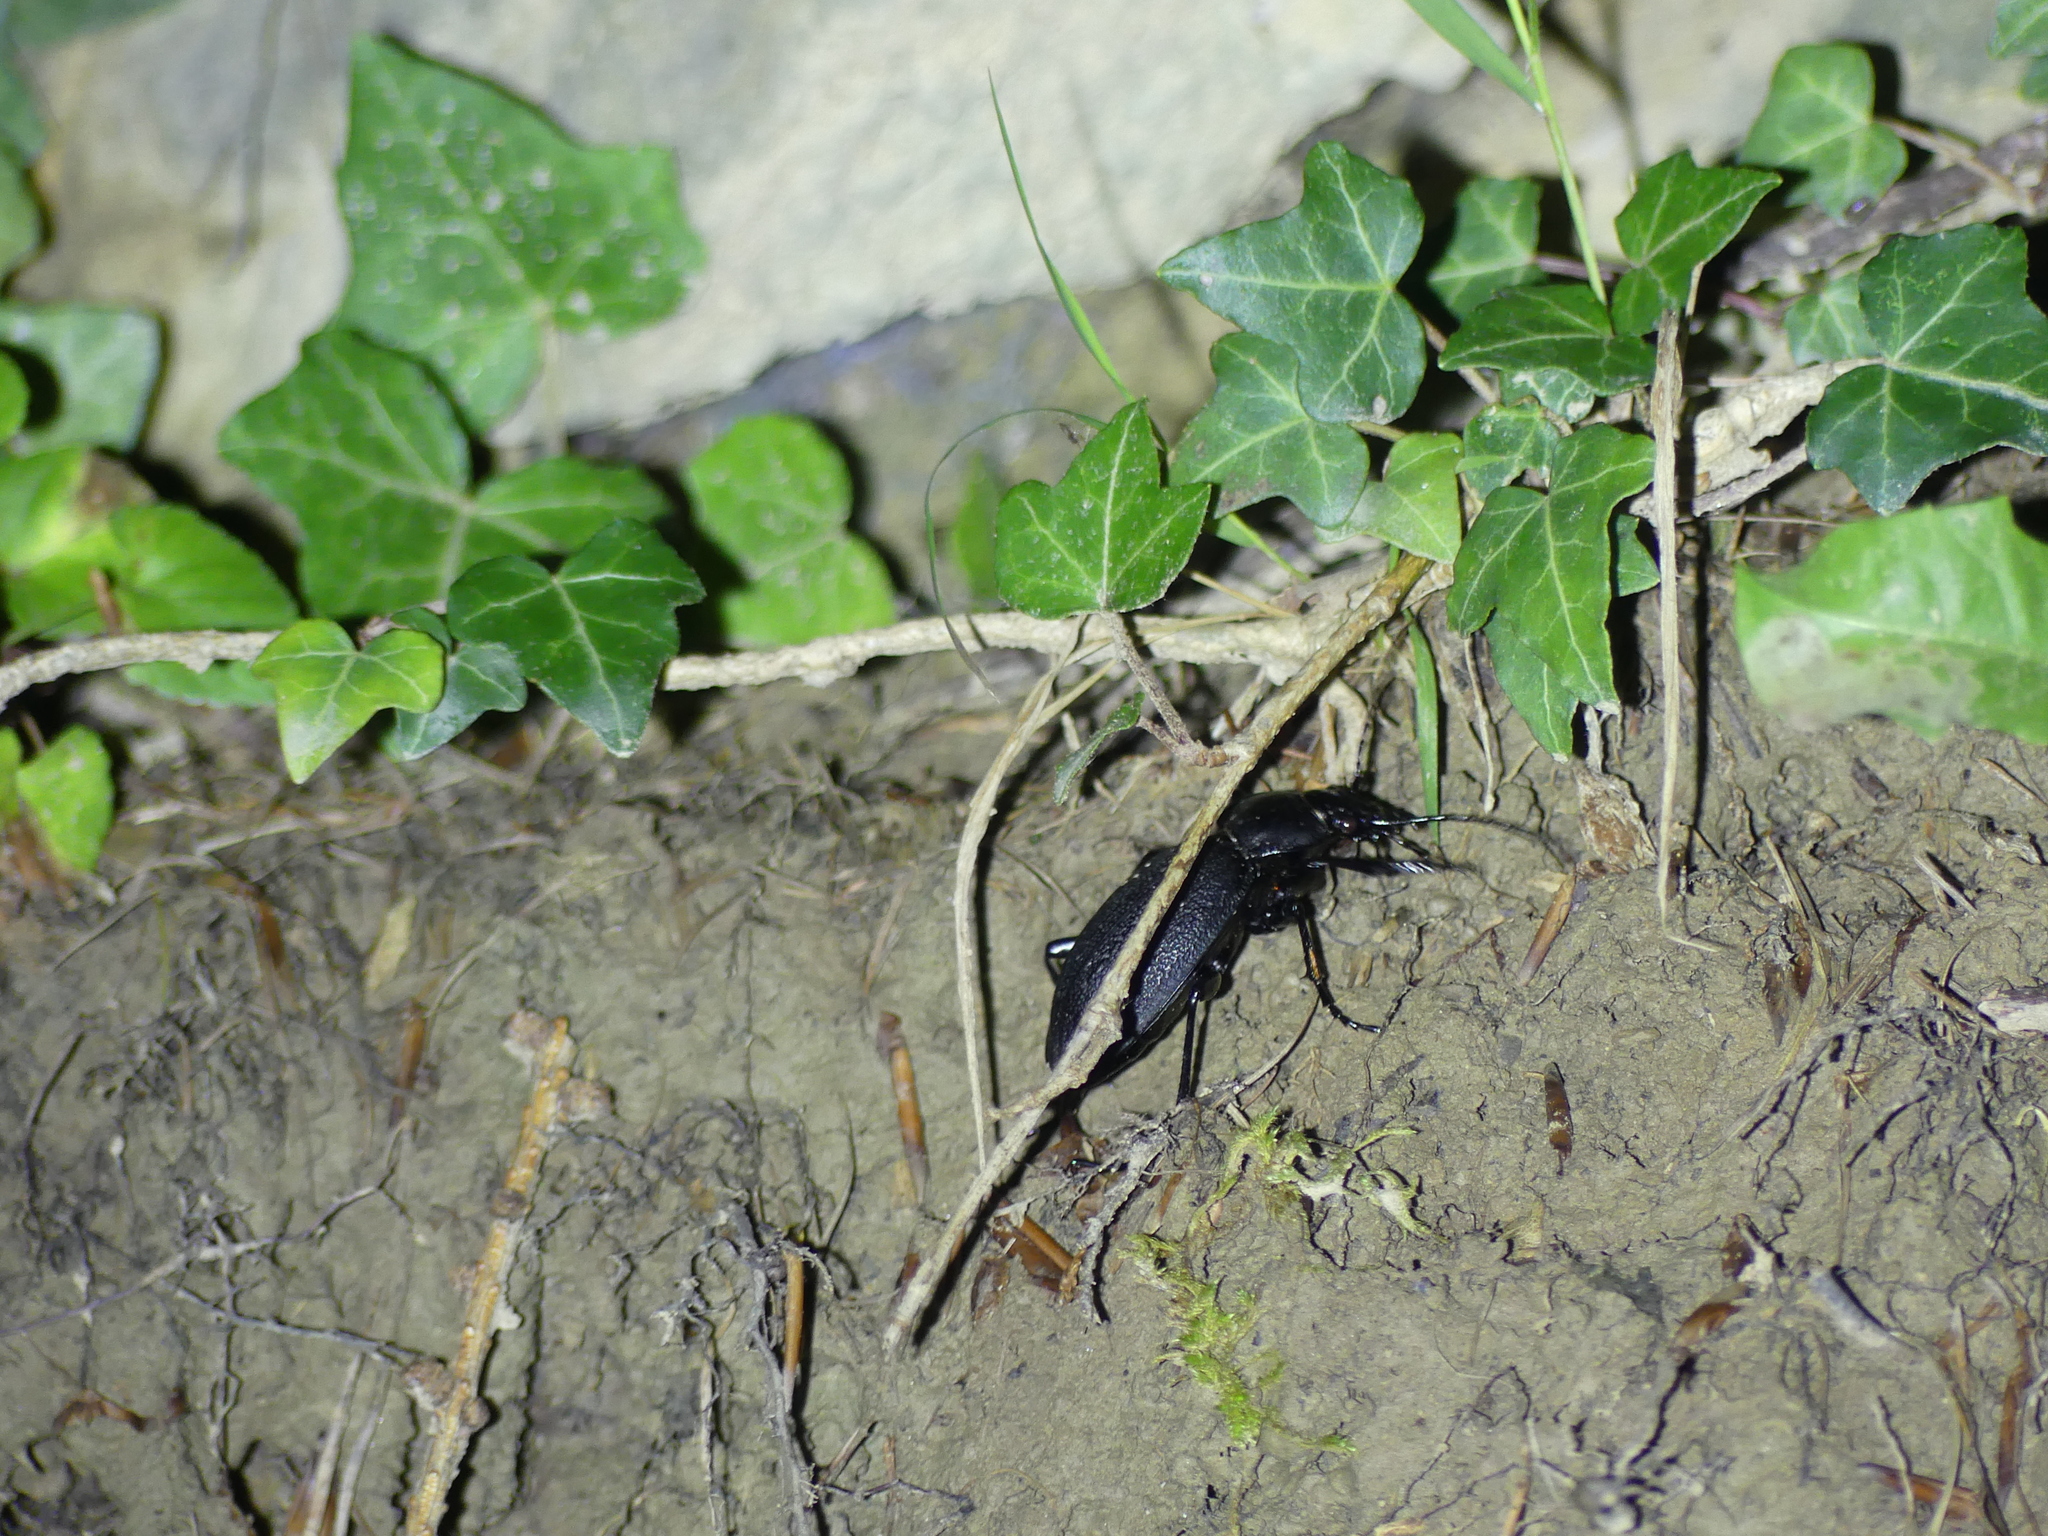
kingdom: Animalia
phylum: Arthropoda
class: Insecta
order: Coleoptera
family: Carabidae
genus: Carabus
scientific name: Carabus coriaceus
